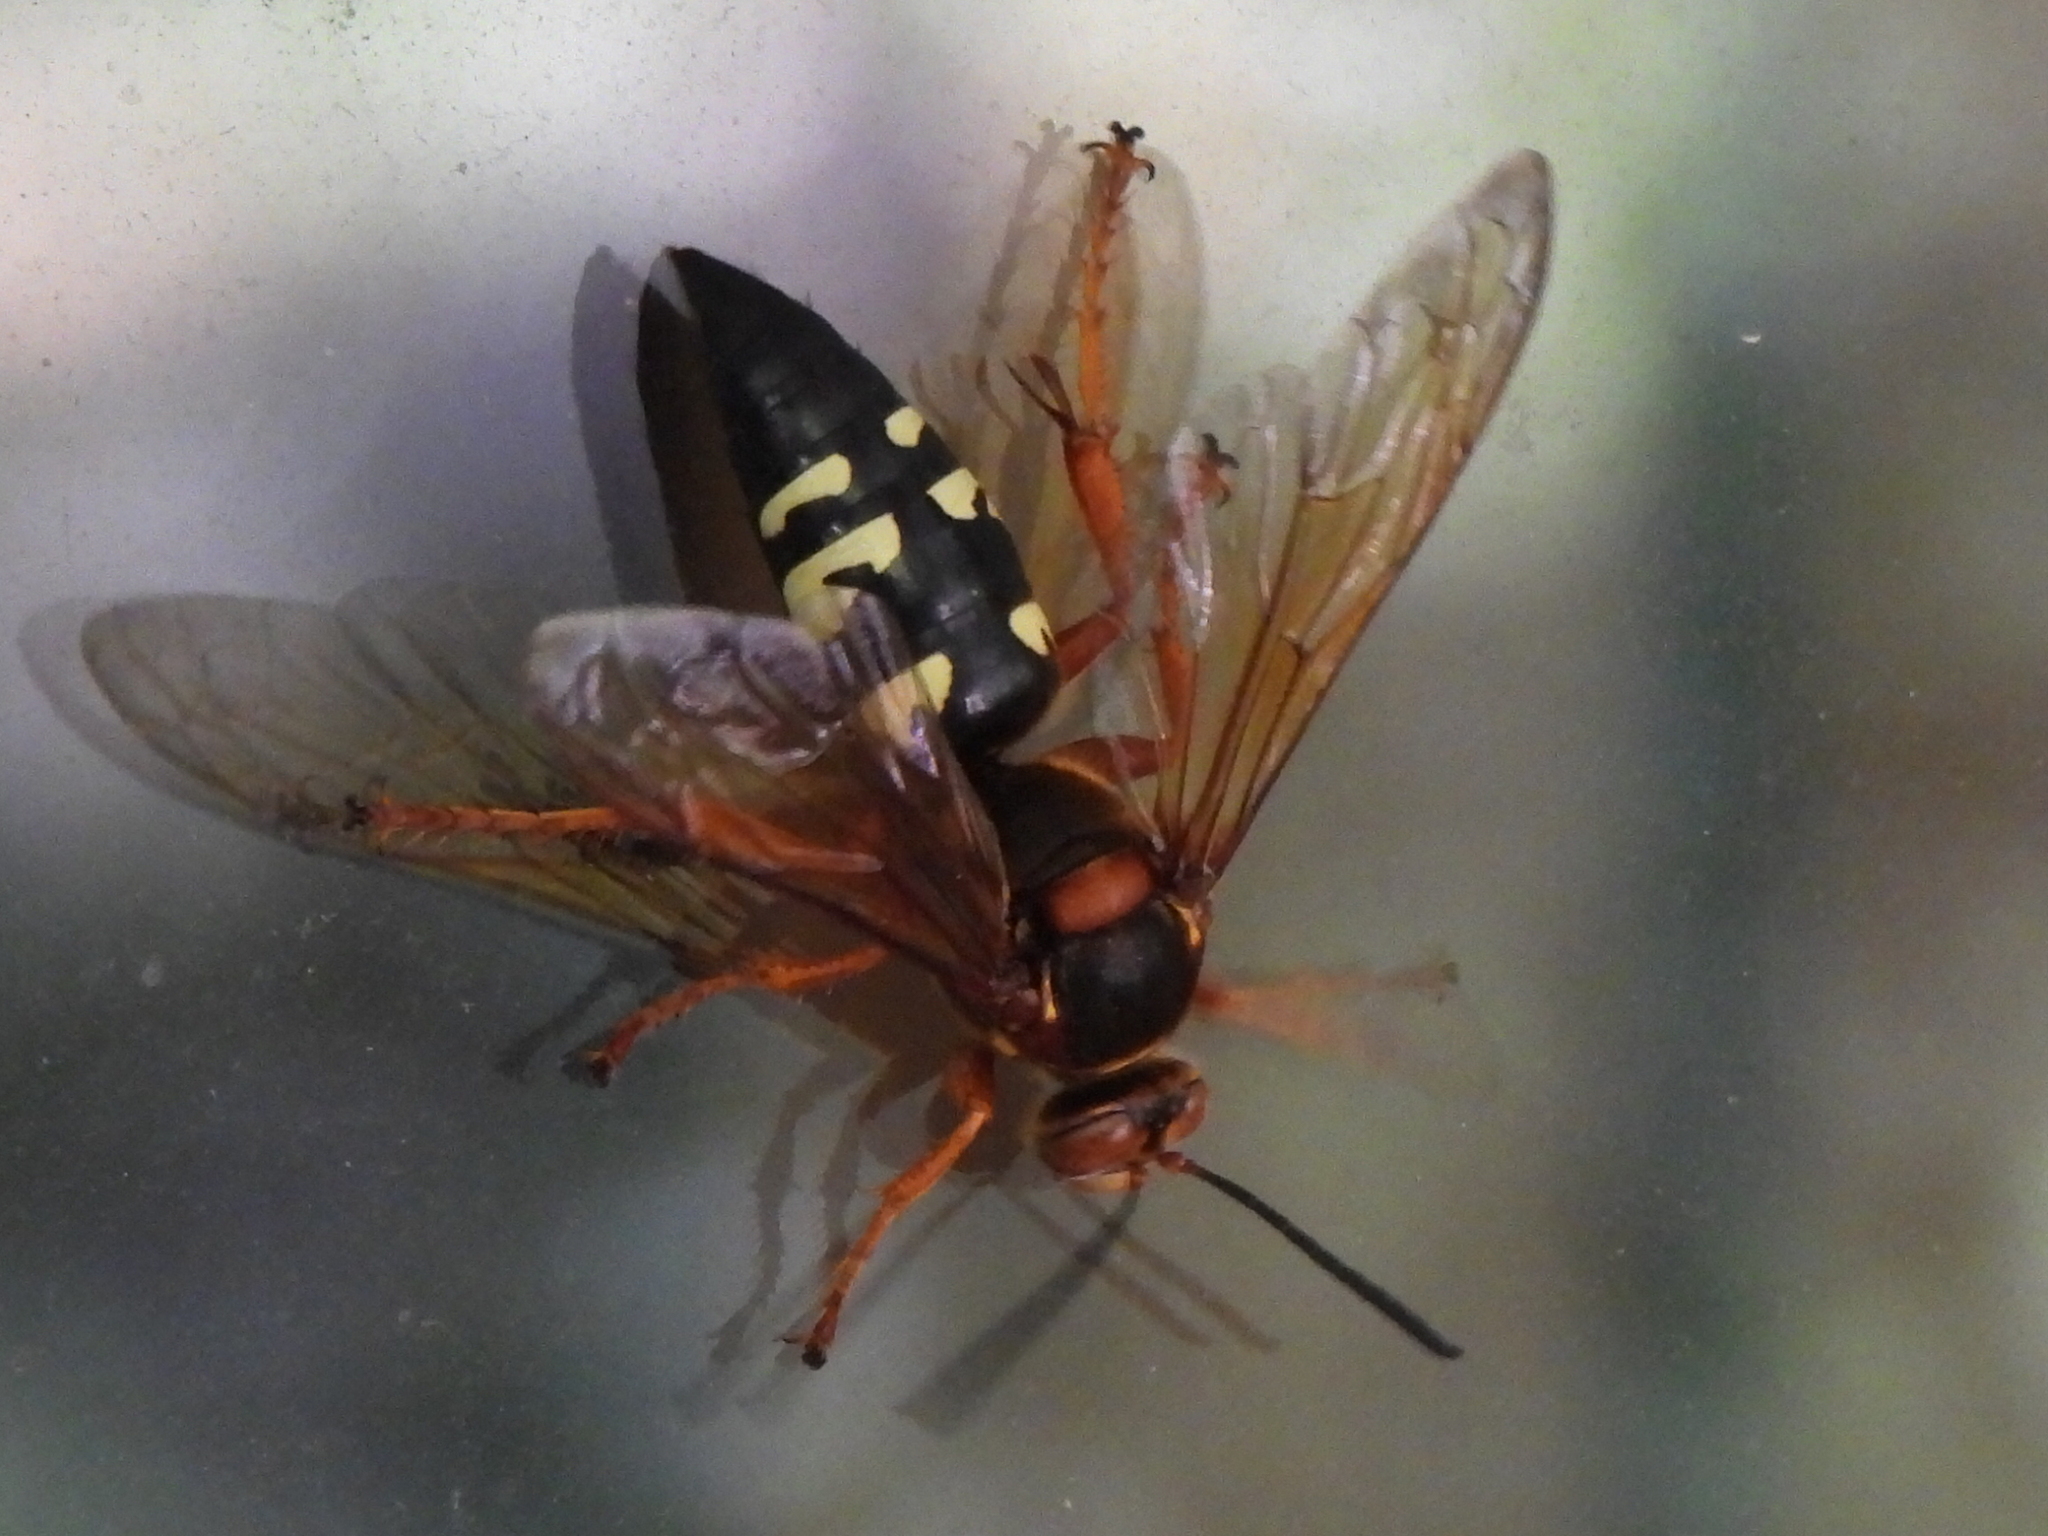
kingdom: Animalia
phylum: Arthropoda
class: Insecta
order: Hymenoptera
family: Crabronidae
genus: Sphecius
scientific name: Sphecius speciosus
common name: Cicada killer
